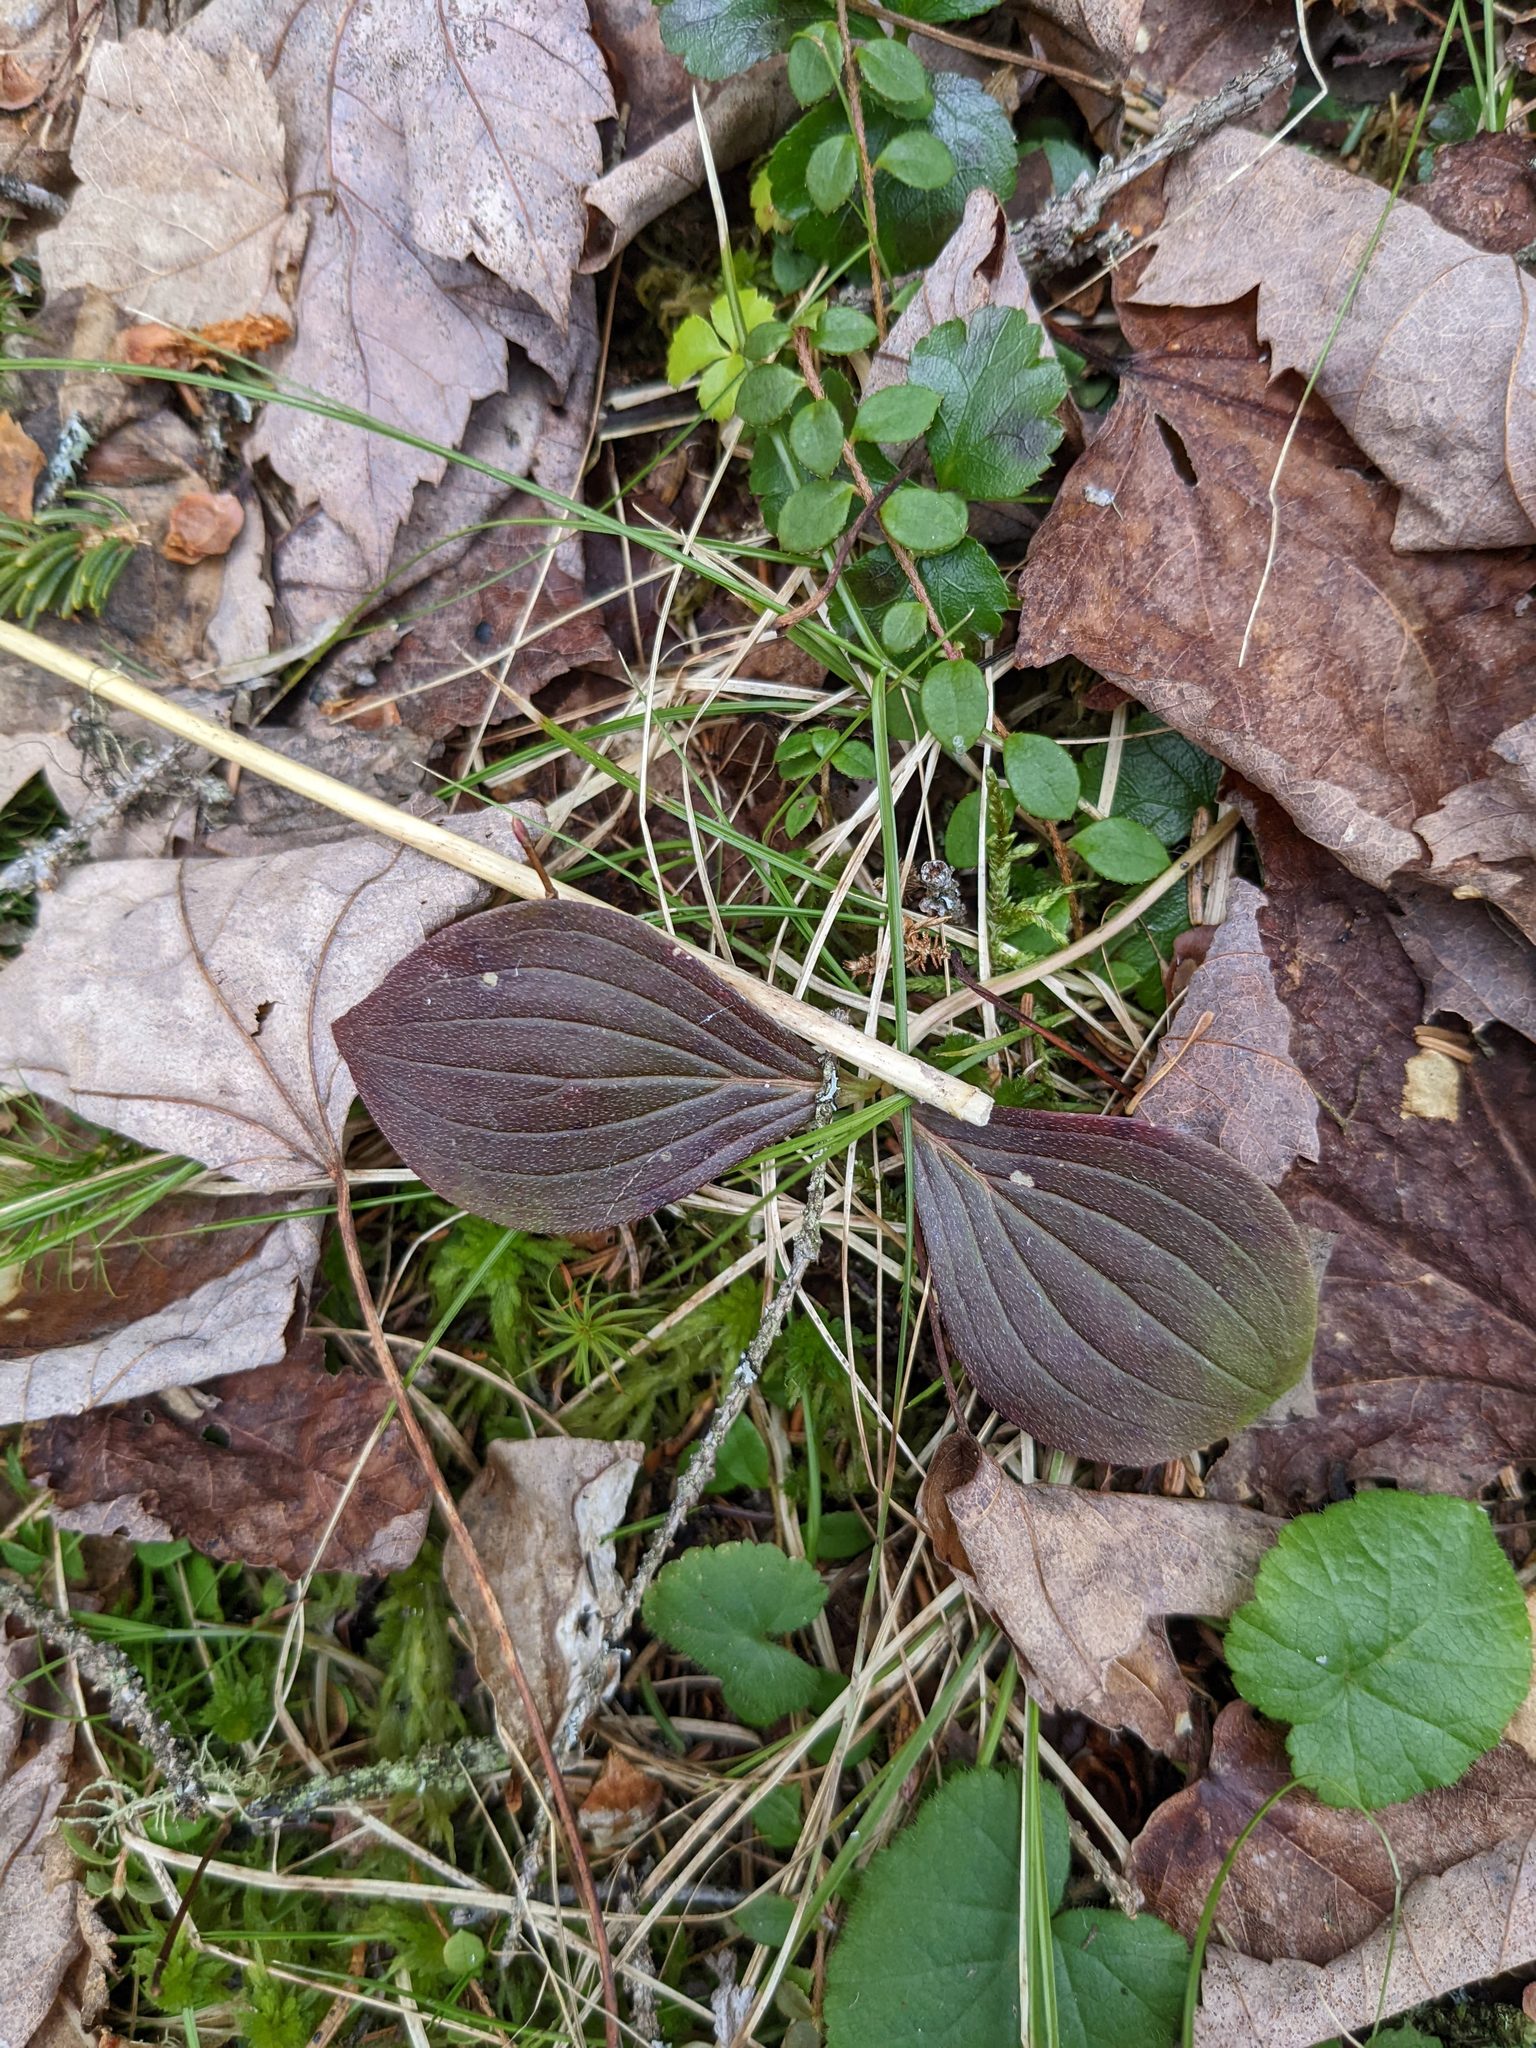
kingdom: Plantae
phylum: Tracheophyta
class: Magnoliopsida
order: Cornales
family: Cornaceae
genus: Cornus
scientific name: Cornus canadensis
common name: Creeping dogwood
